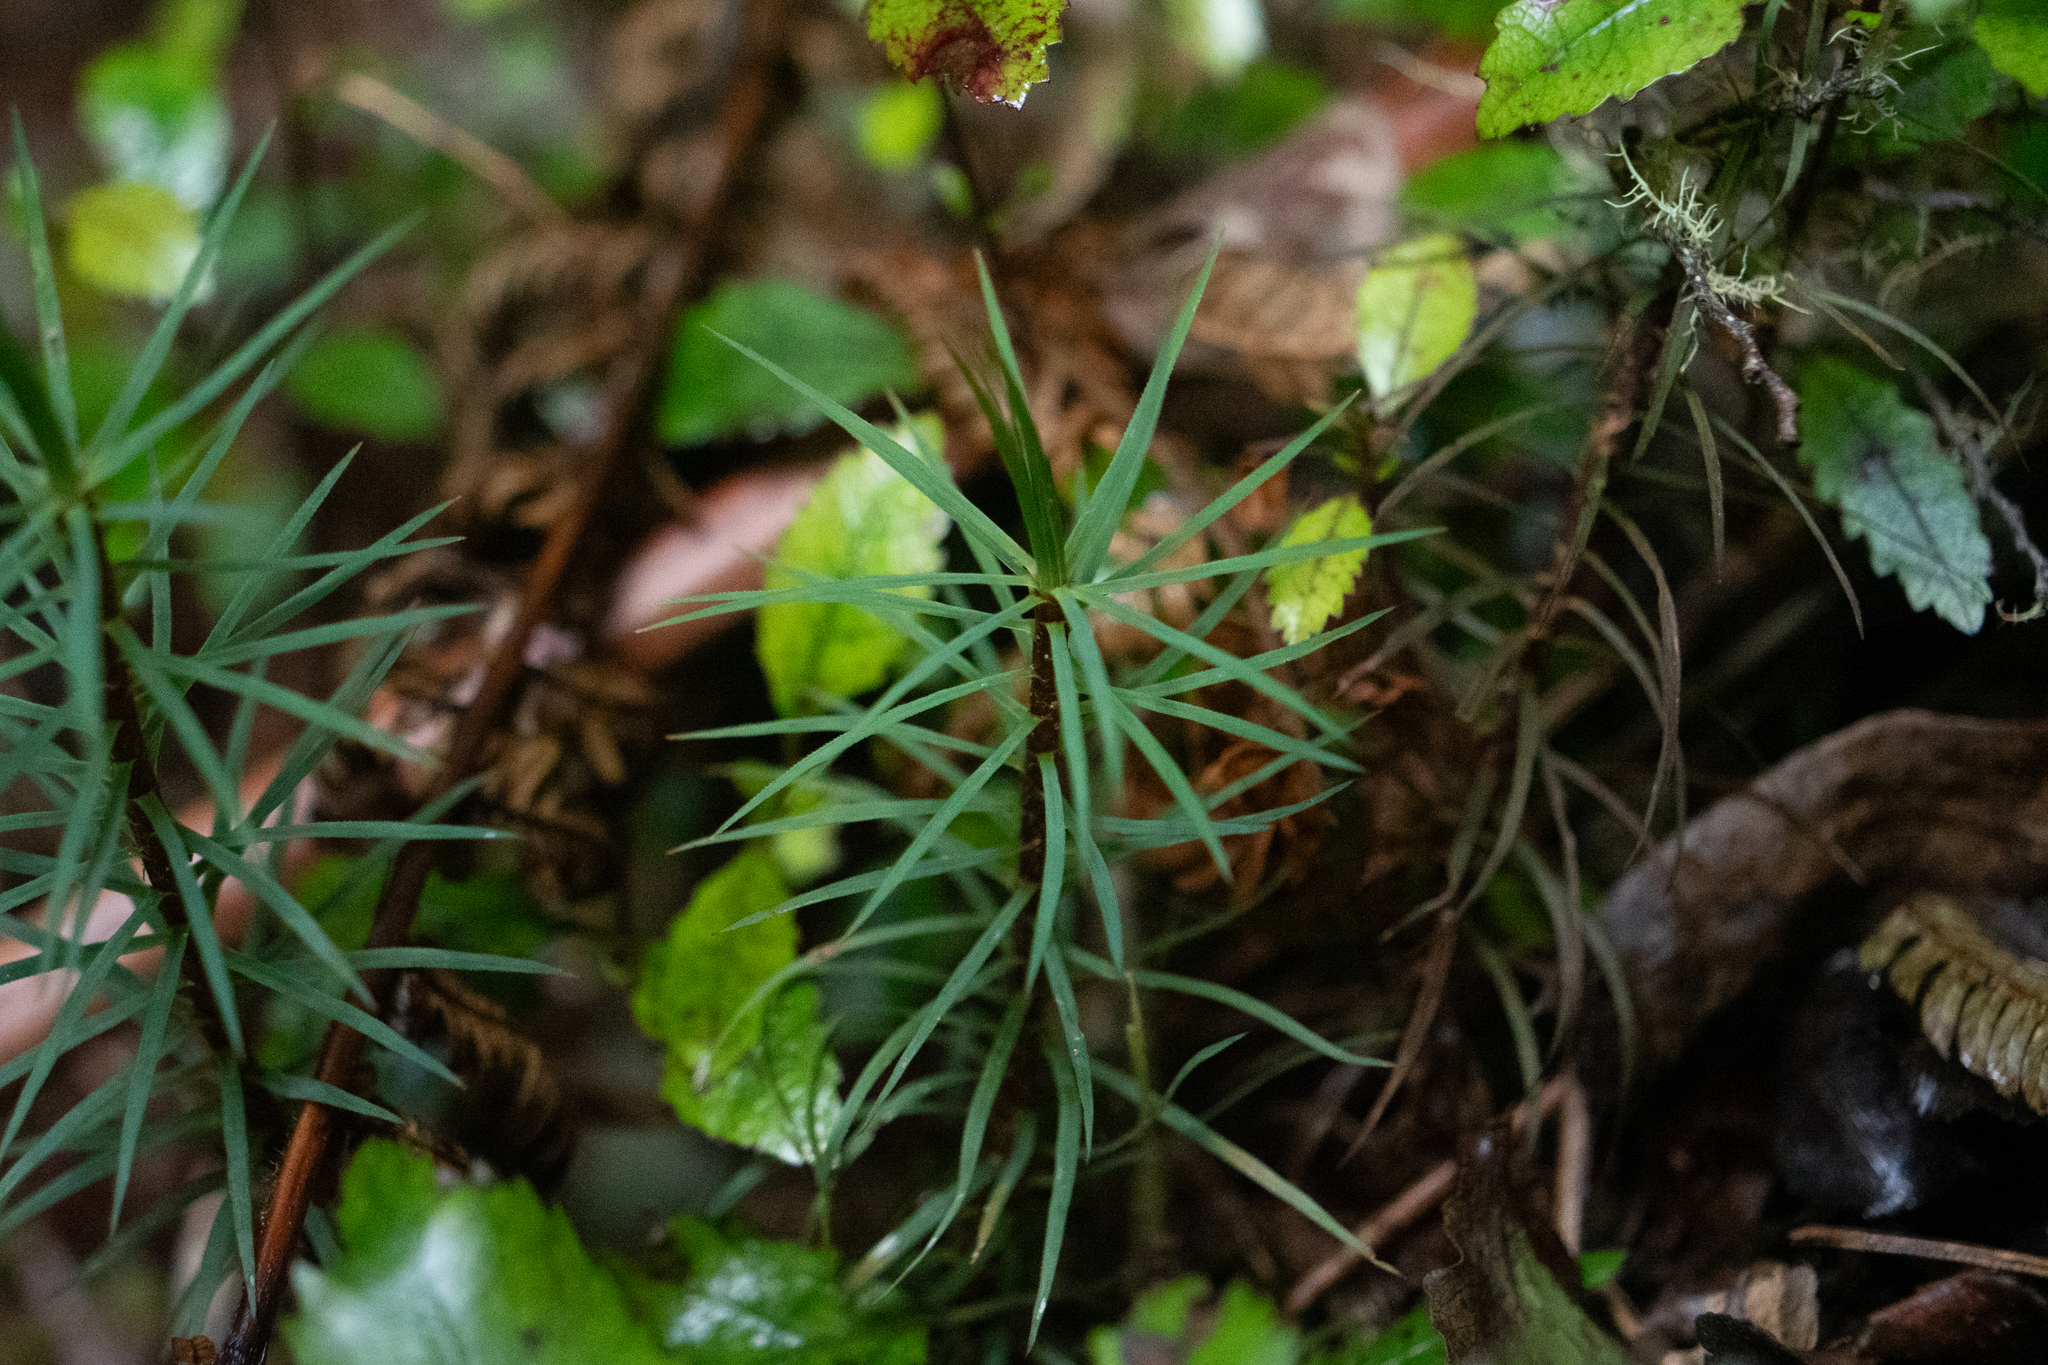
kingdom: Plantae
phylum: Bryophyta
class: Polytrichopsida
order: Polytrichales
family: Polytrichaceae
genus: Dawsonia
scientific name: Dawsonia superba
